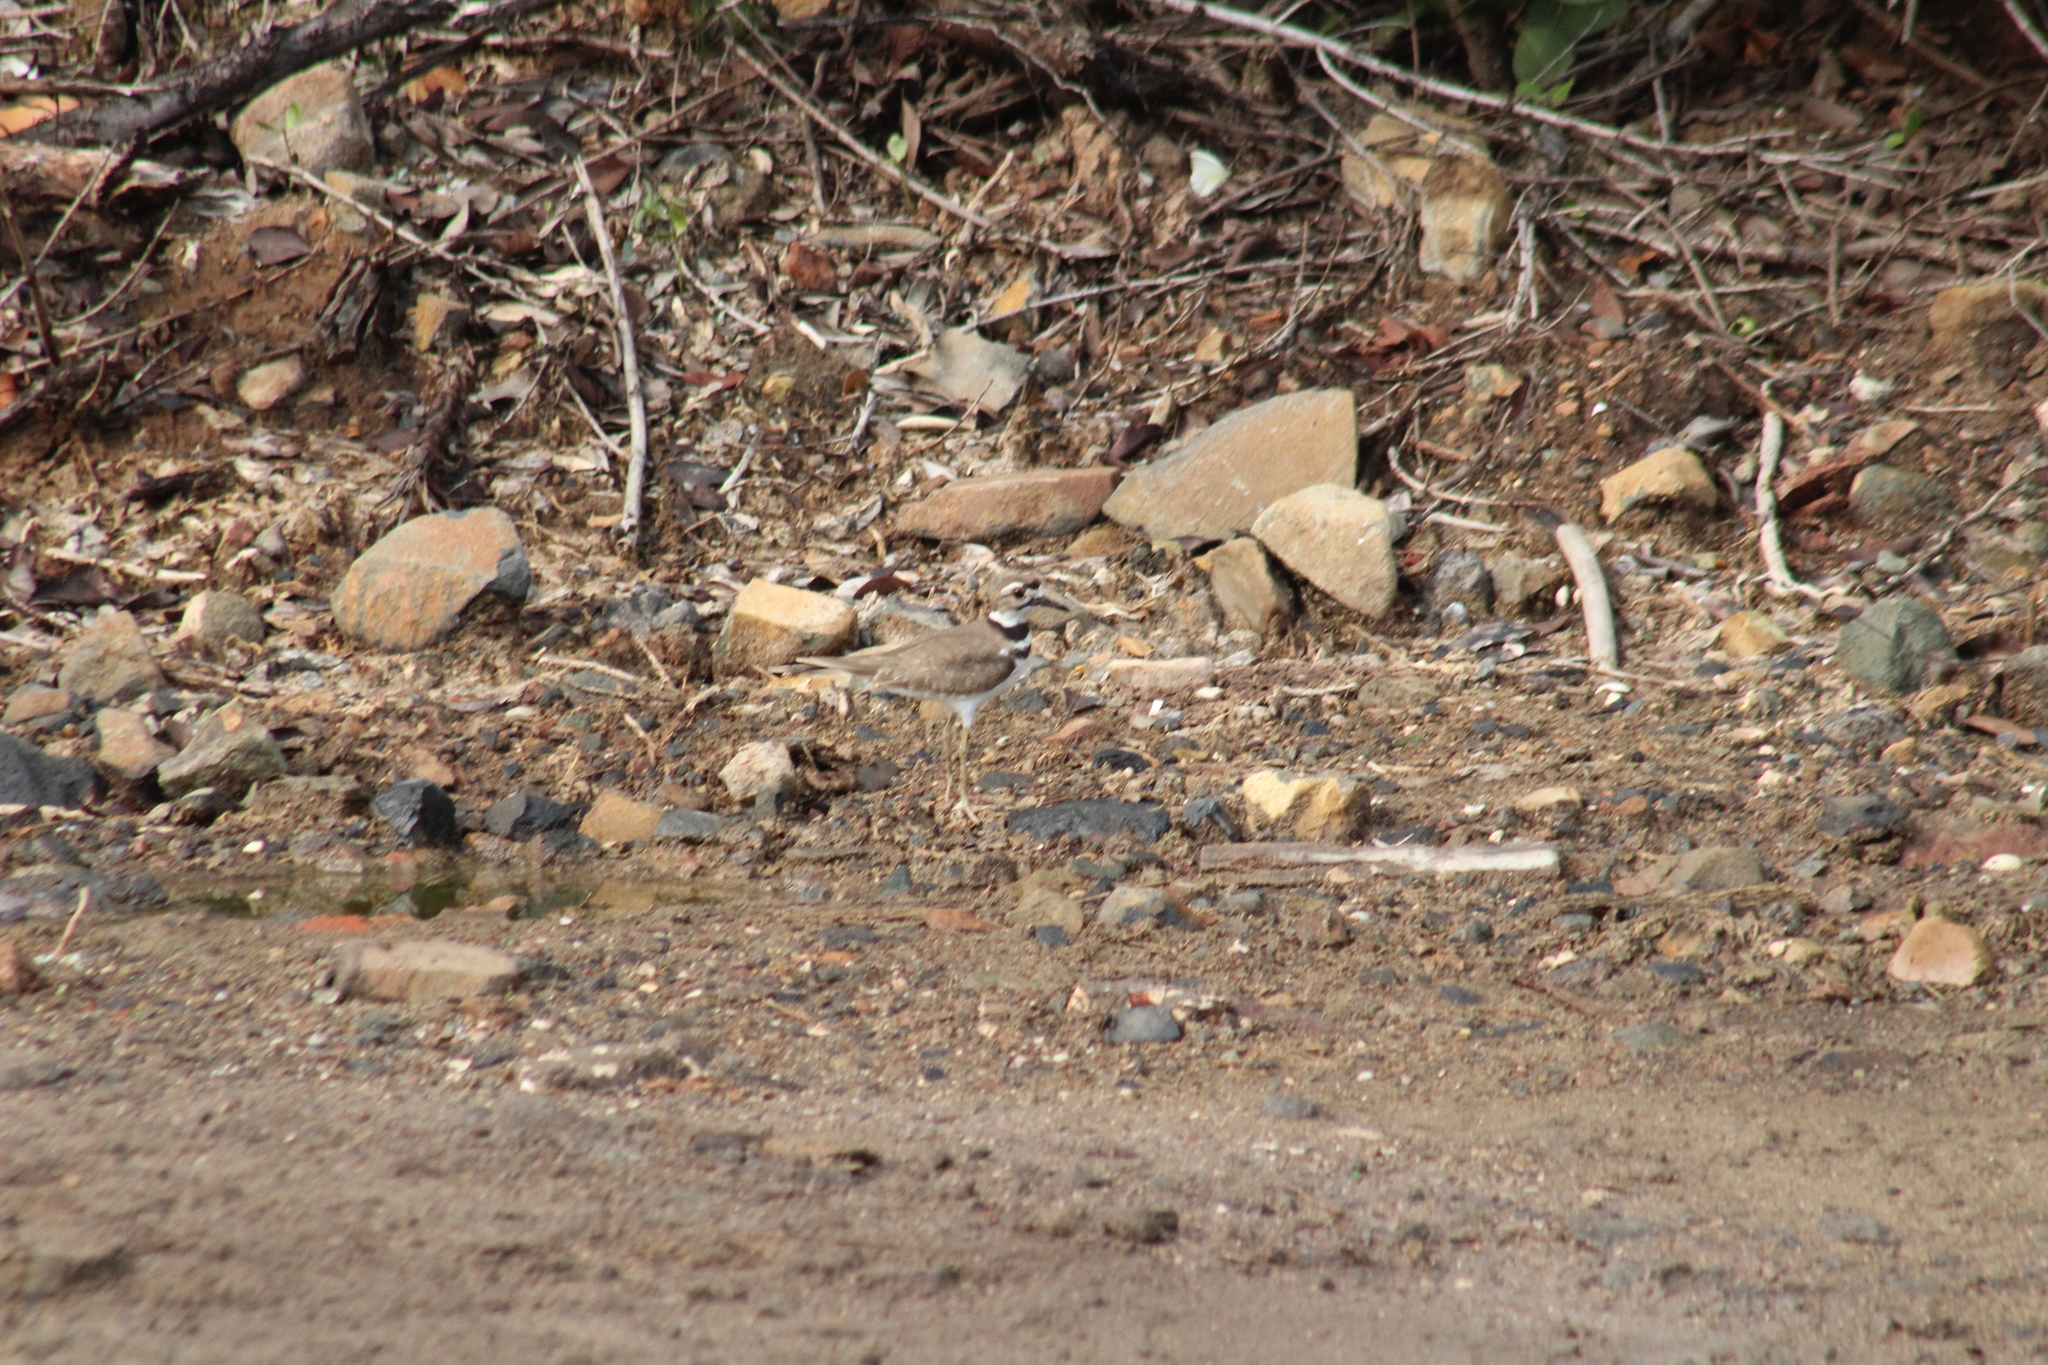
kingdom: Animalia
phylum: Chordata
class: Aves
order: Charadriiformes
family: Charadriidae
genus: Charadrius
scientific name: Charadrius vociferus
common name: Killdeer
